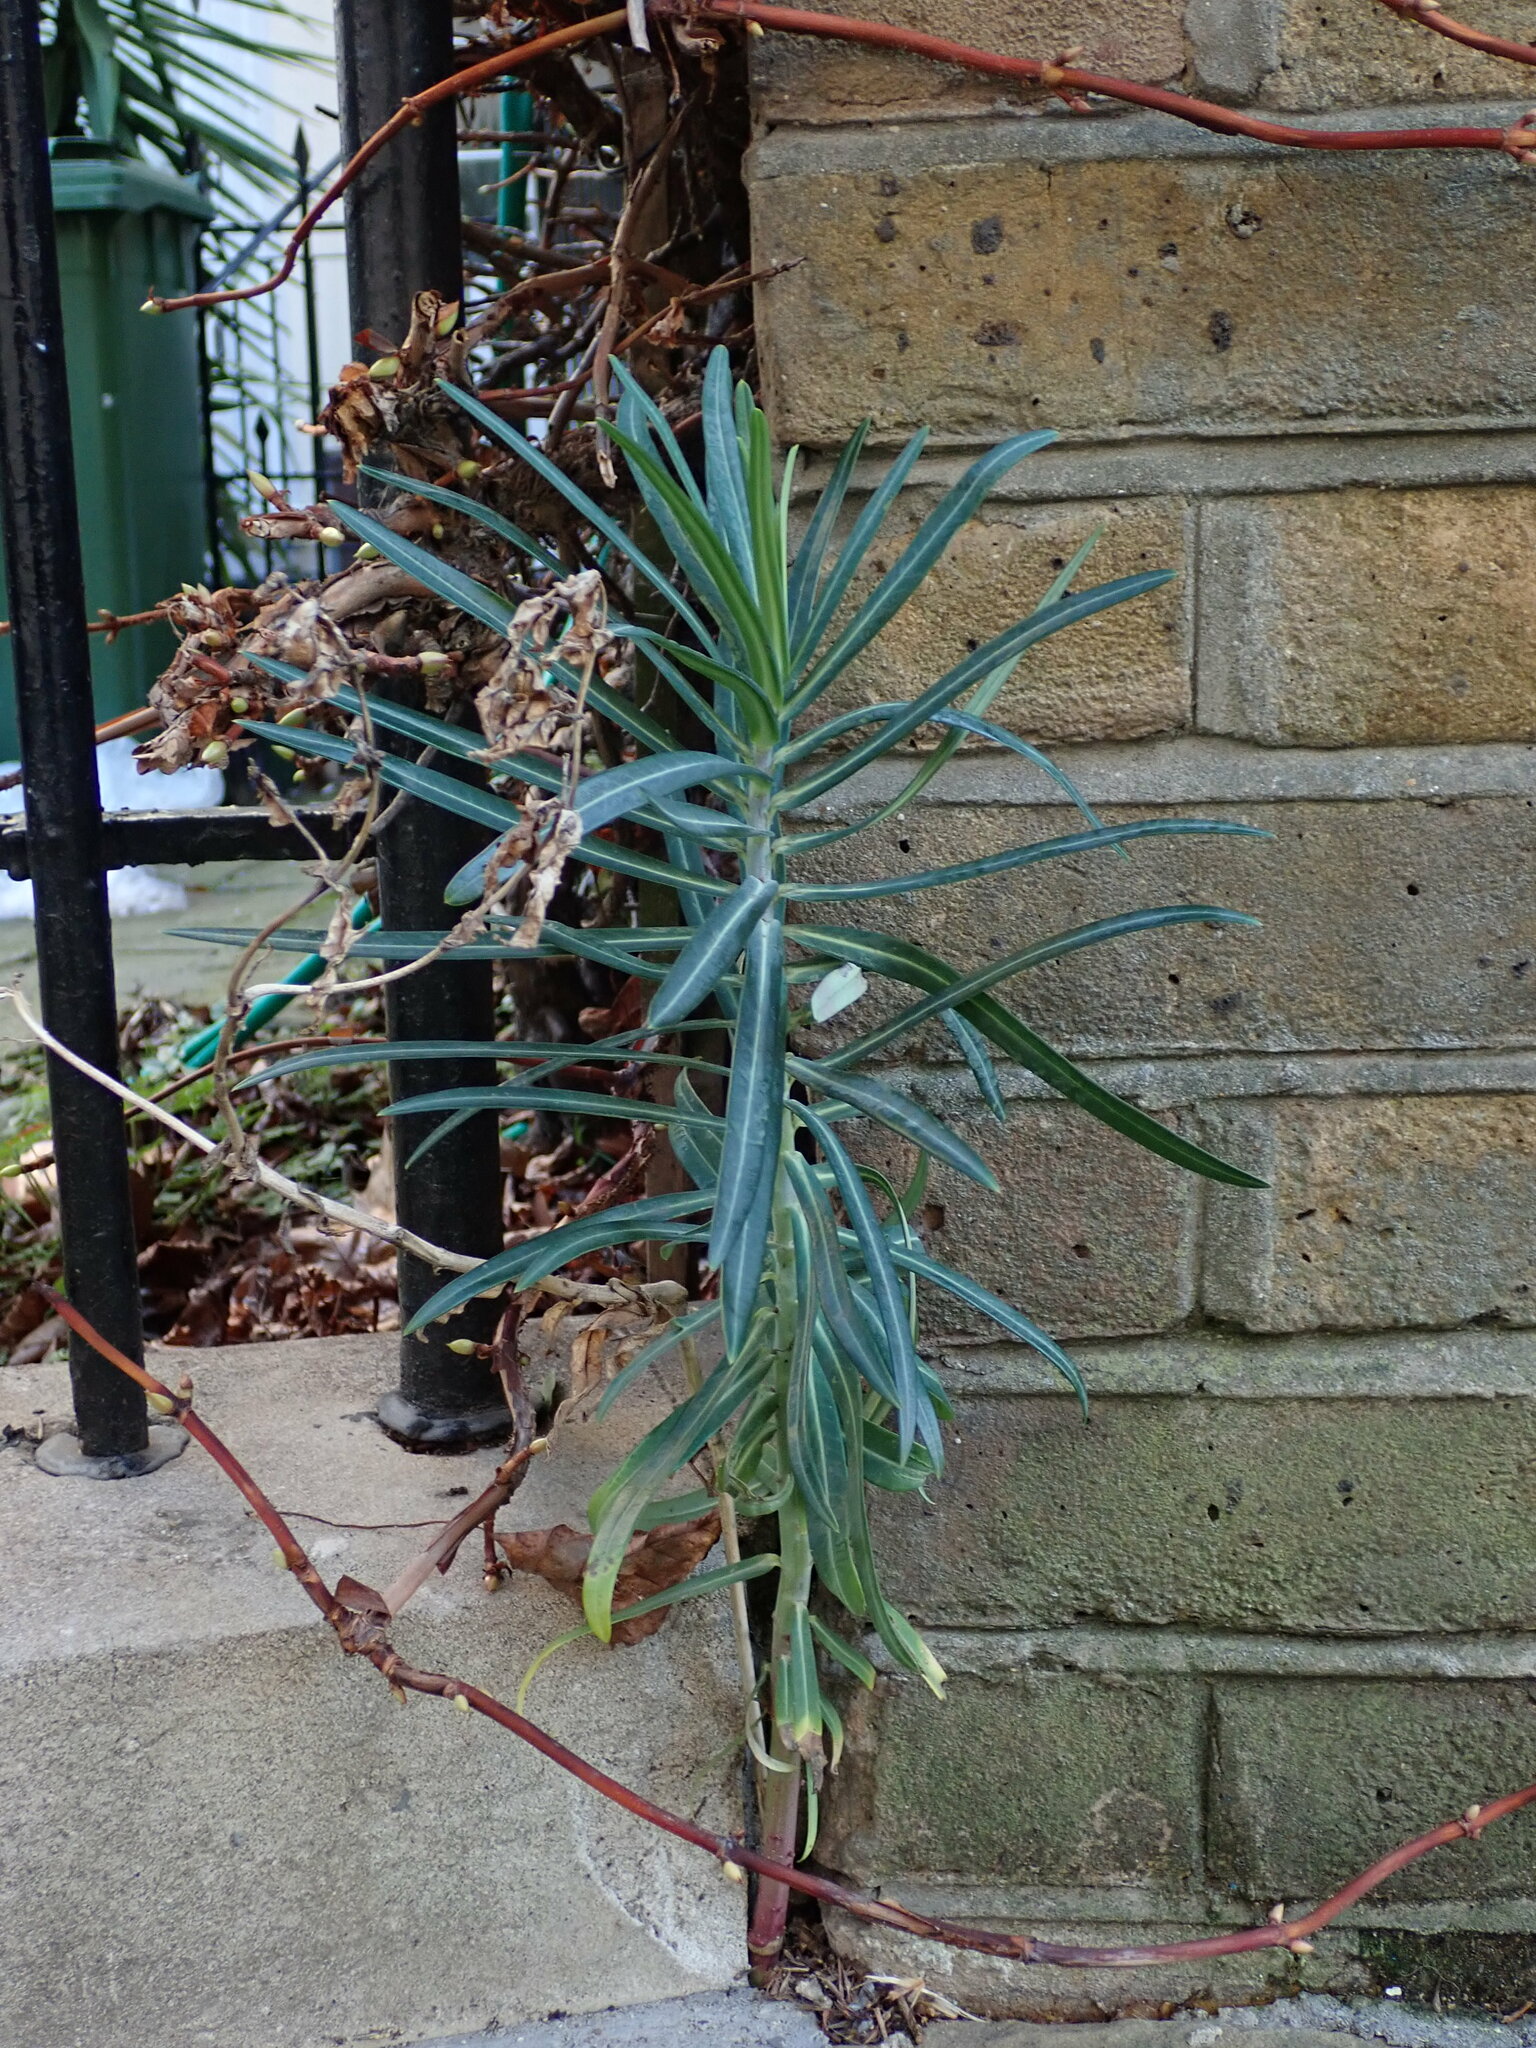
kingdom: Plantae
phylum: Tracheophyta
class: Magnoliopsida
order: Malpighiales
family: Euphorbiaceae
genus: Euphorbia
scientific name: Euphorbia lathyris
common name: Caper spurge
